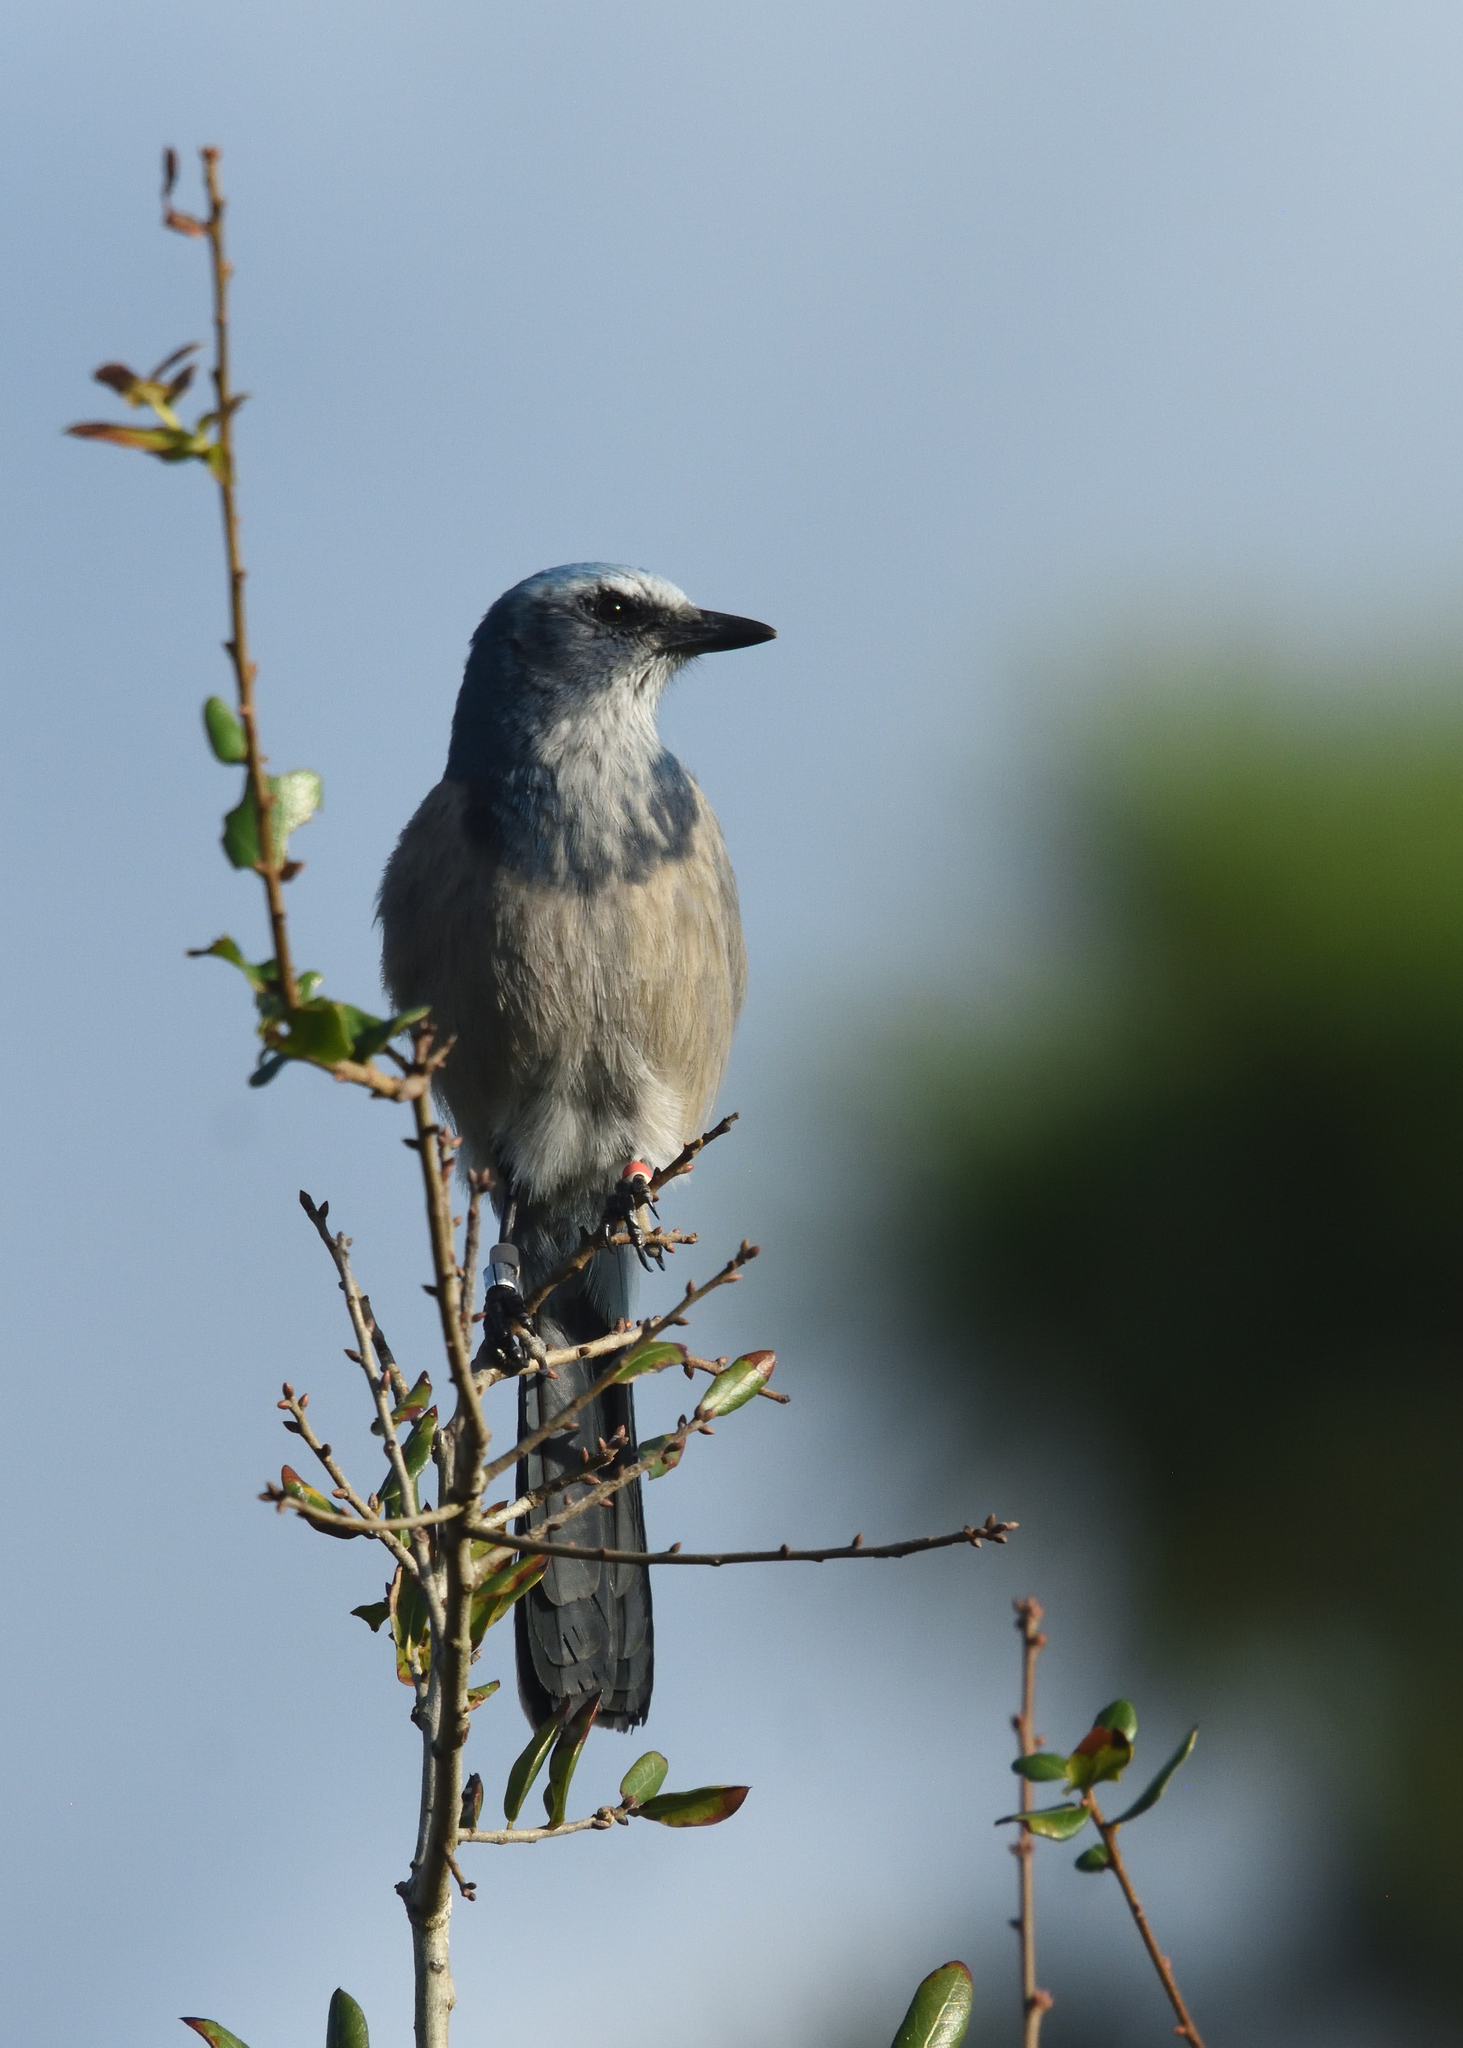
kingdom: Animalia
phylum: Chordata
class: Aves
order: Passeriformes
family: Corvidae
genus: Aphelocoma
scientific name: Aphelocoma coerulescens
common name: Florida scrub jay
